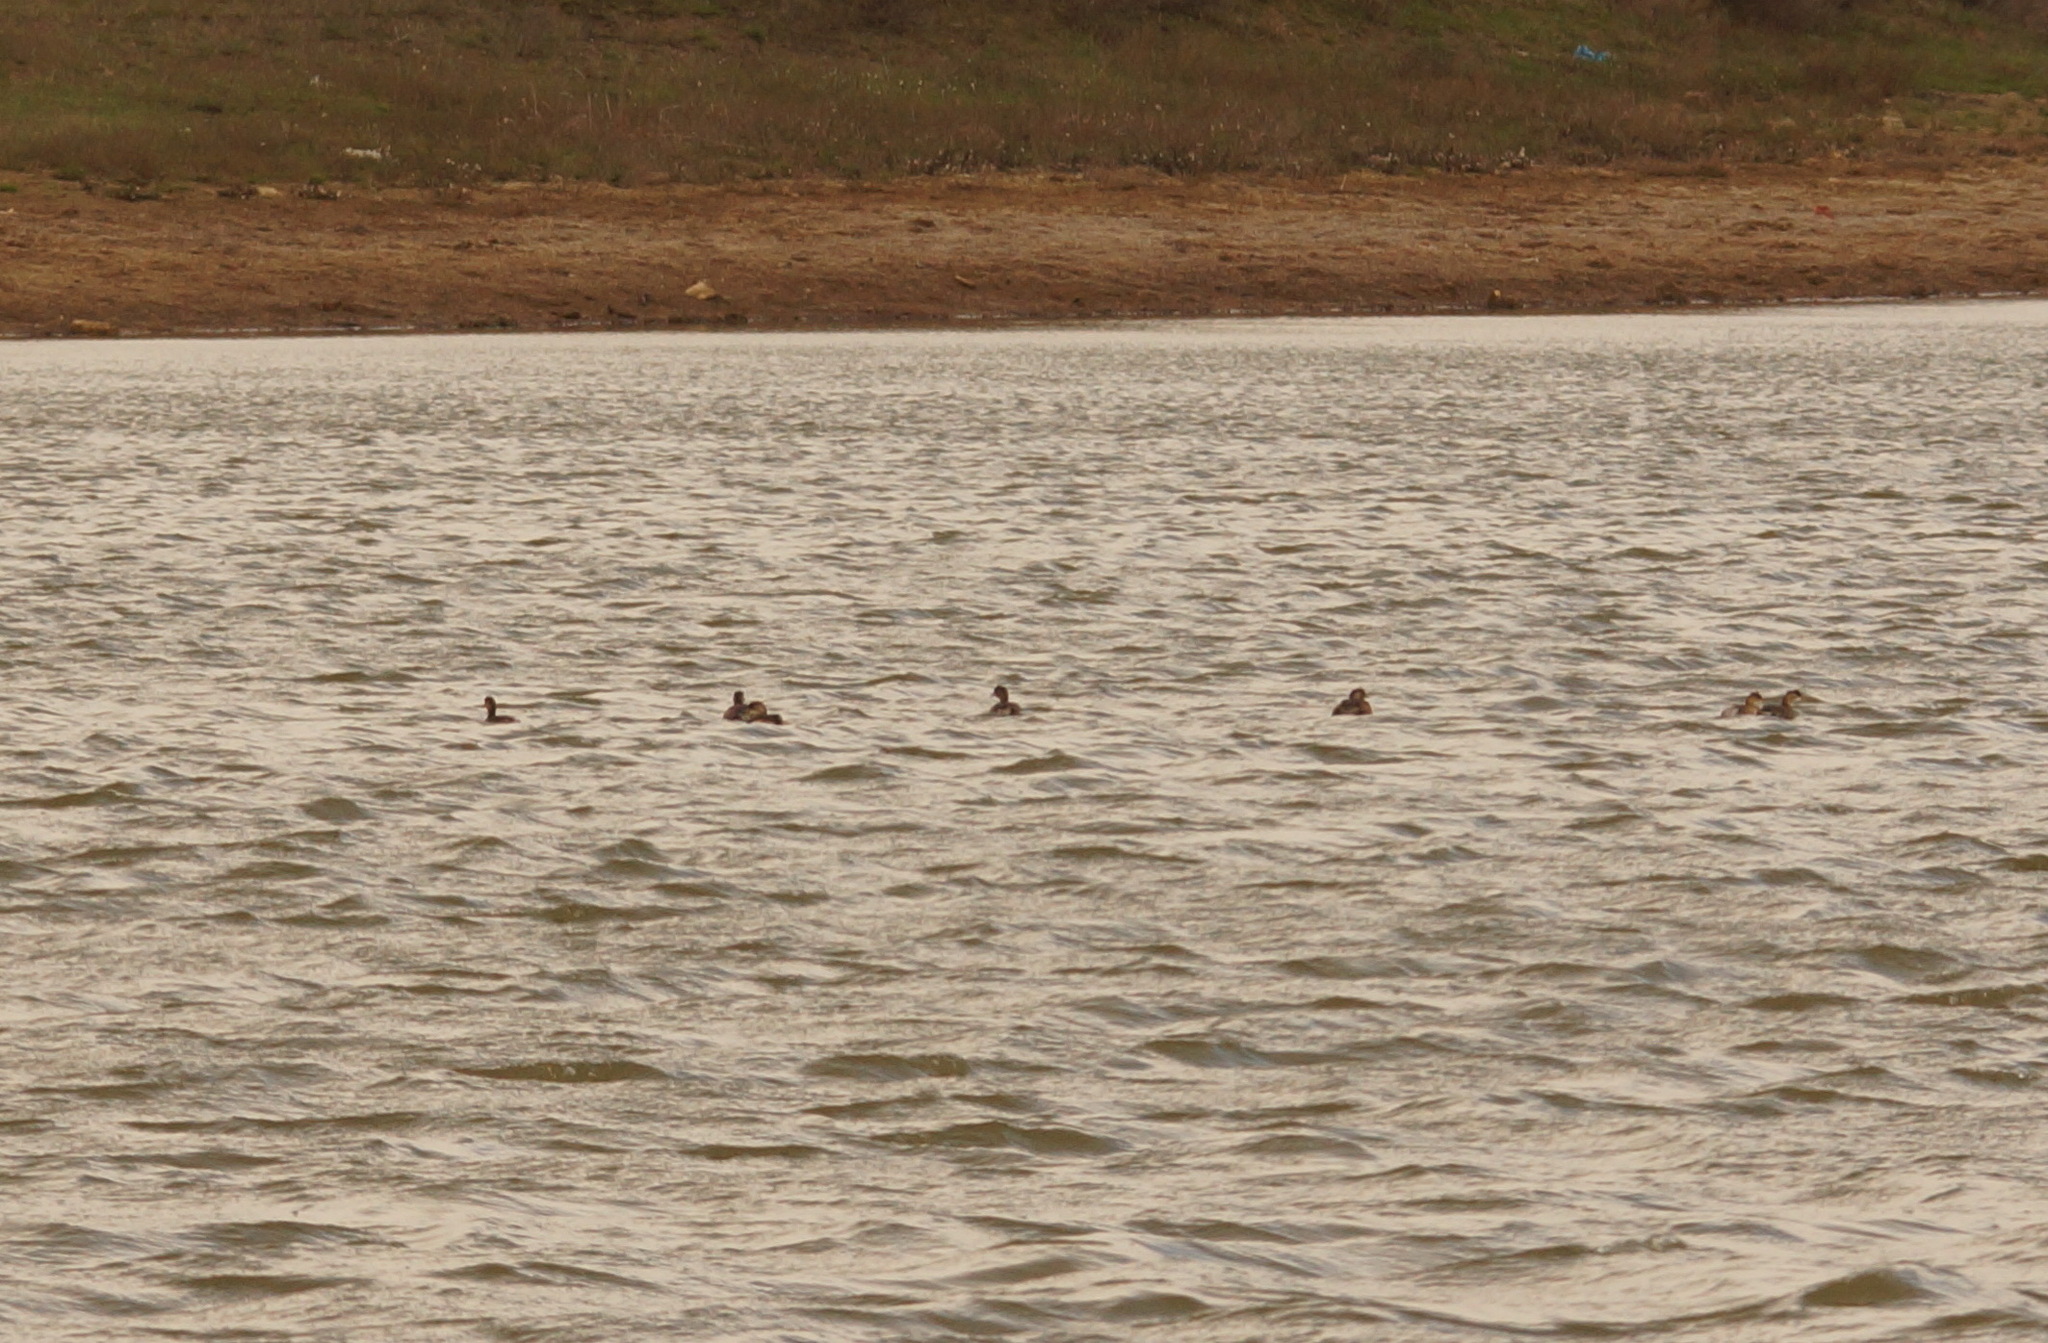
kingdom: Animalia
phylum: Chordata
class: Aves
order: Podicipediformes
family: Podicipedidae
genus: Tachybaptus
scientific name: Tachybaptus ruficollis
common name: Little grebe
